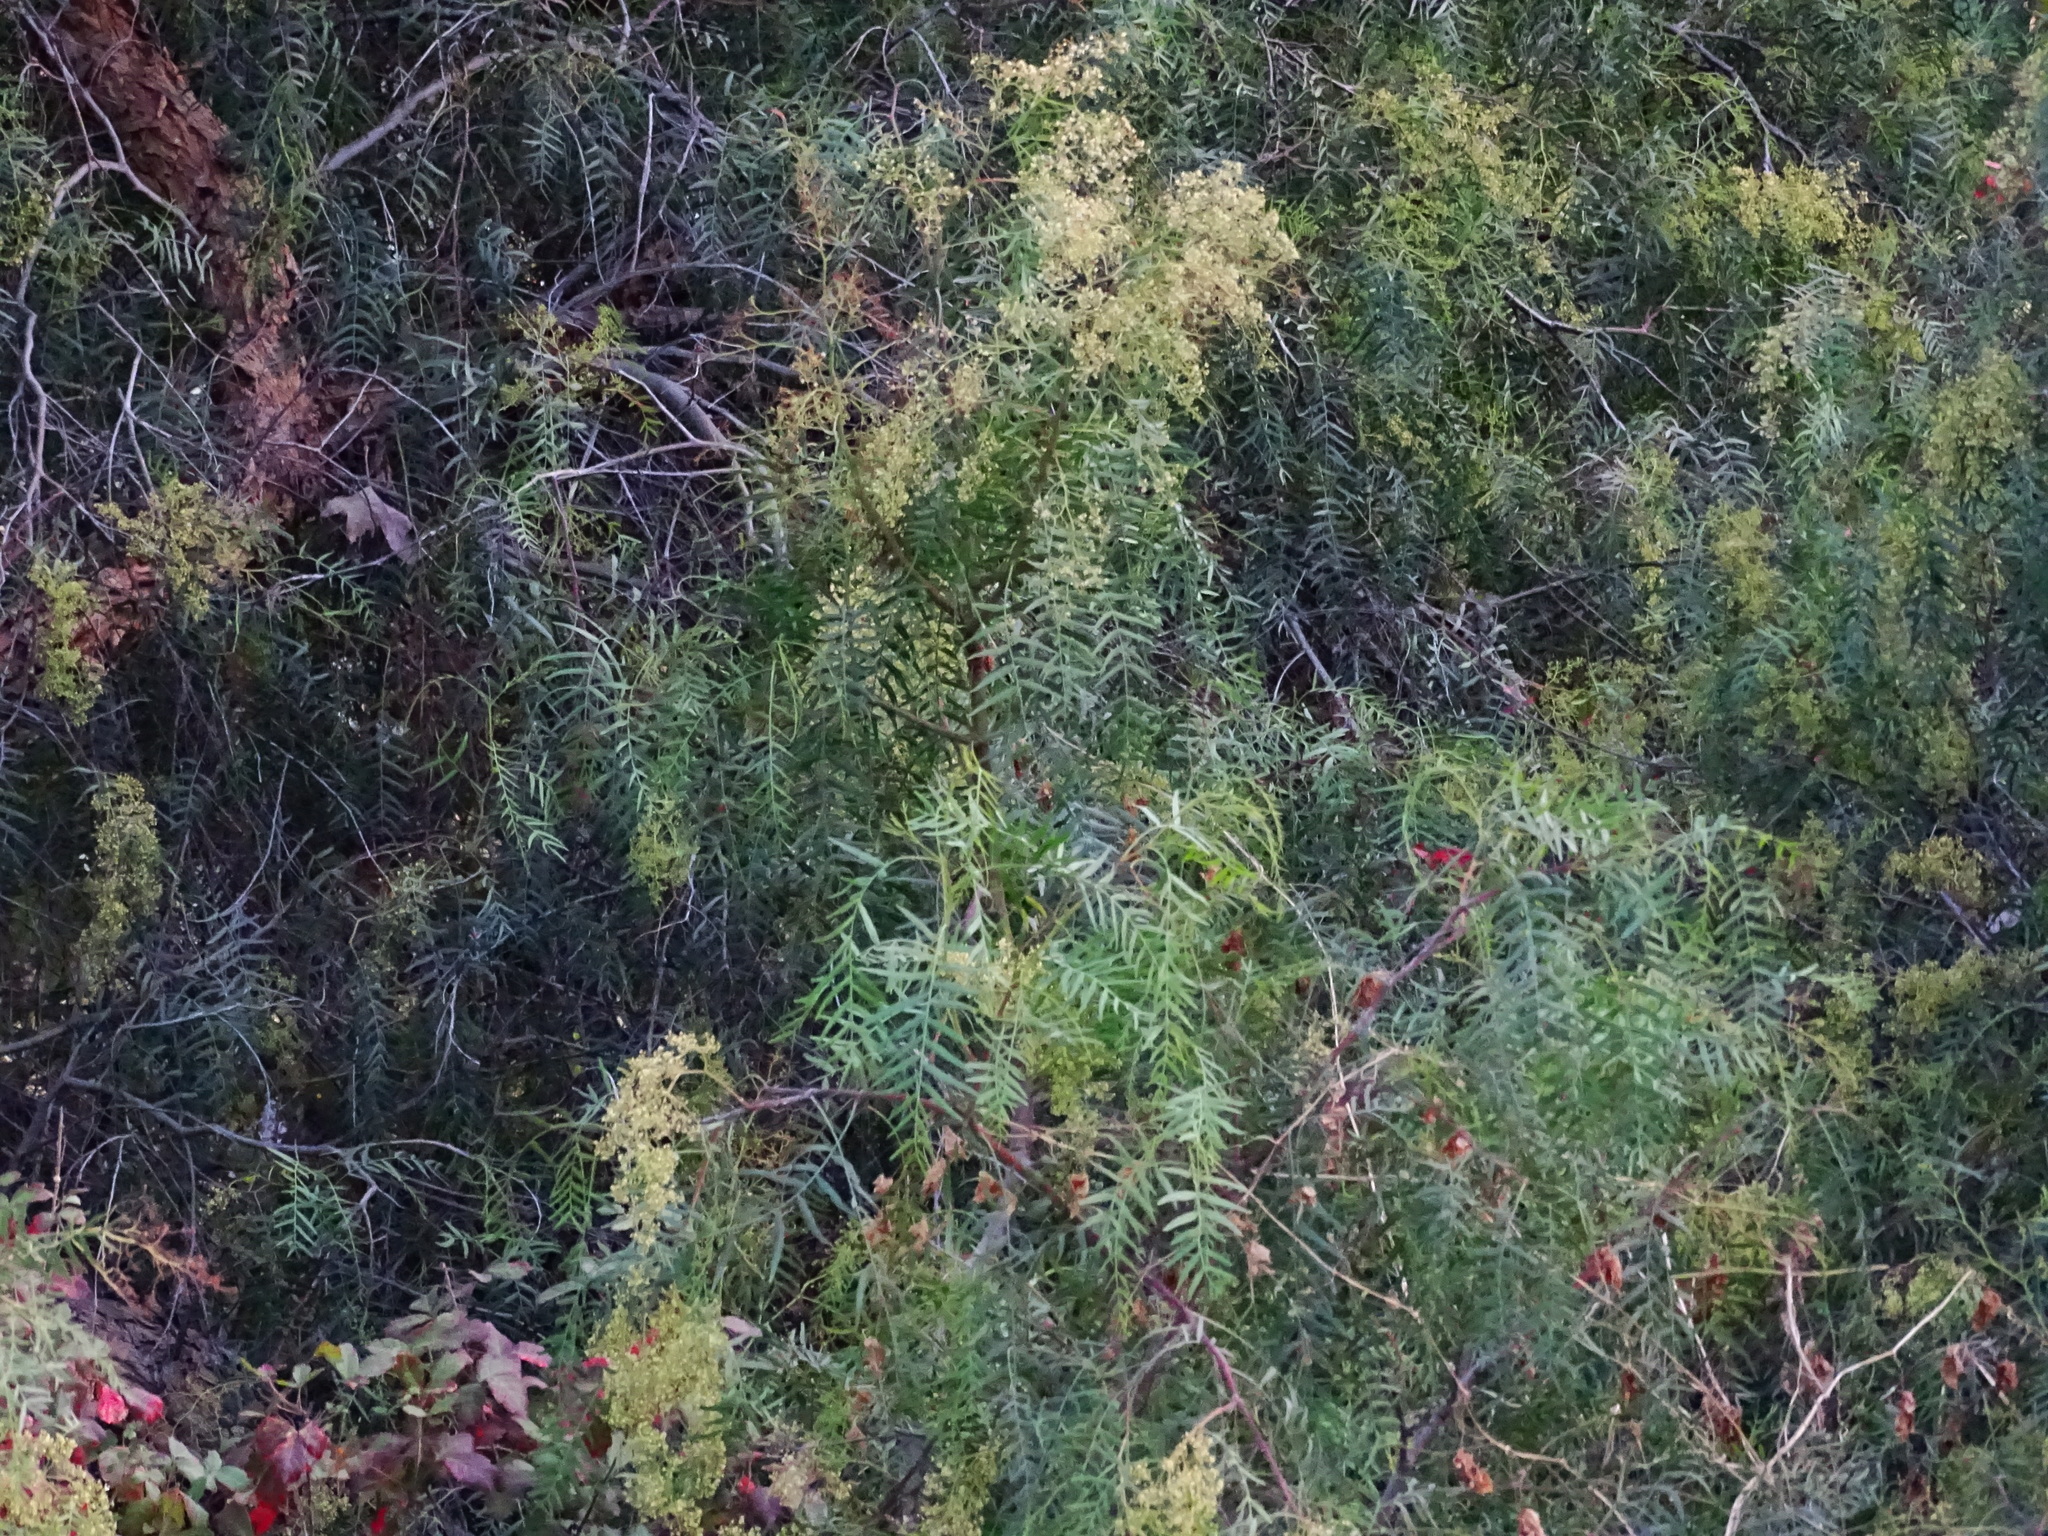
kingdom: Plantae
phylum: Tracheophyta
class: Magnoliopsida
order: Sapindales
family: Anacardiaceae
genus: Schinus
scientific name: Schinus molle
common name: Peruvian peppertree
